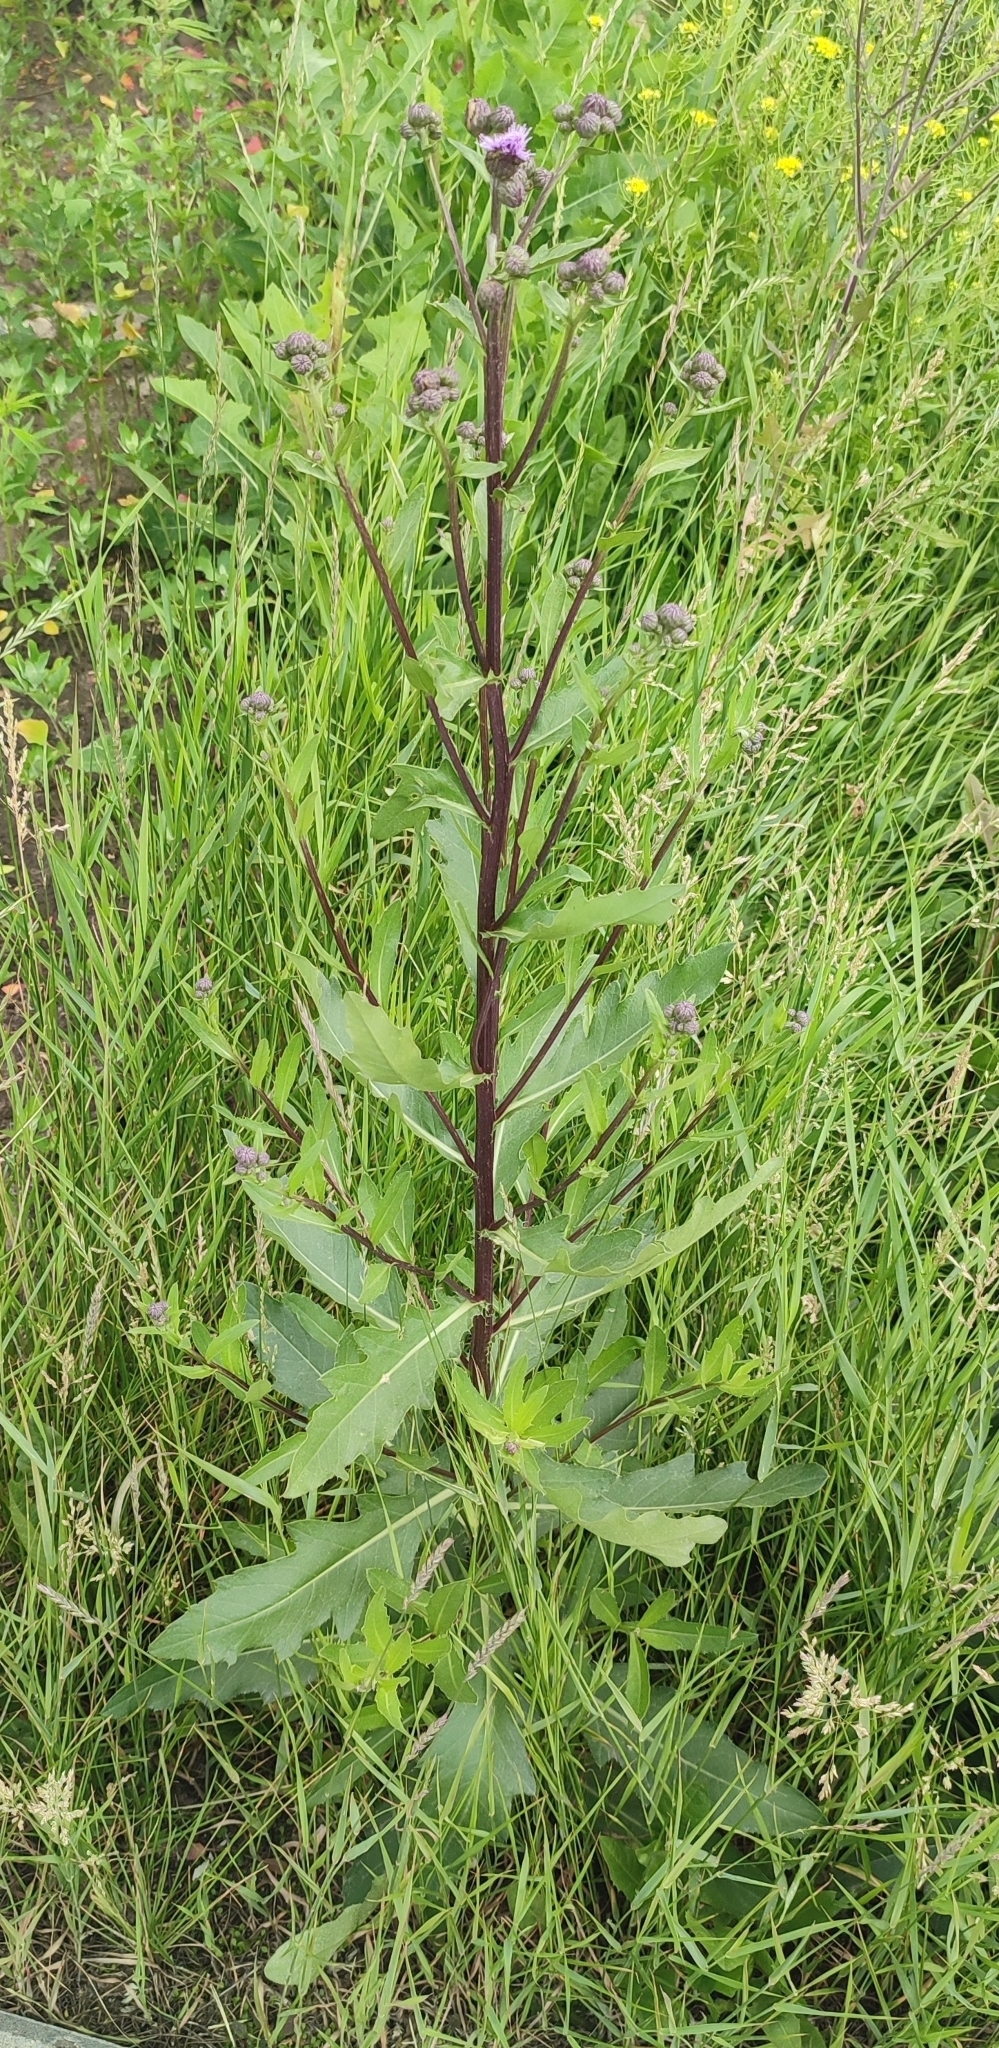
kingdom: Plantae
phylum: Tracheophyta
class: Magnoliopsida
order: Asterales
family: Asteraceae
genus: Cirsium
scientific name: Cirsium arvense
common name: Creeping thistle
